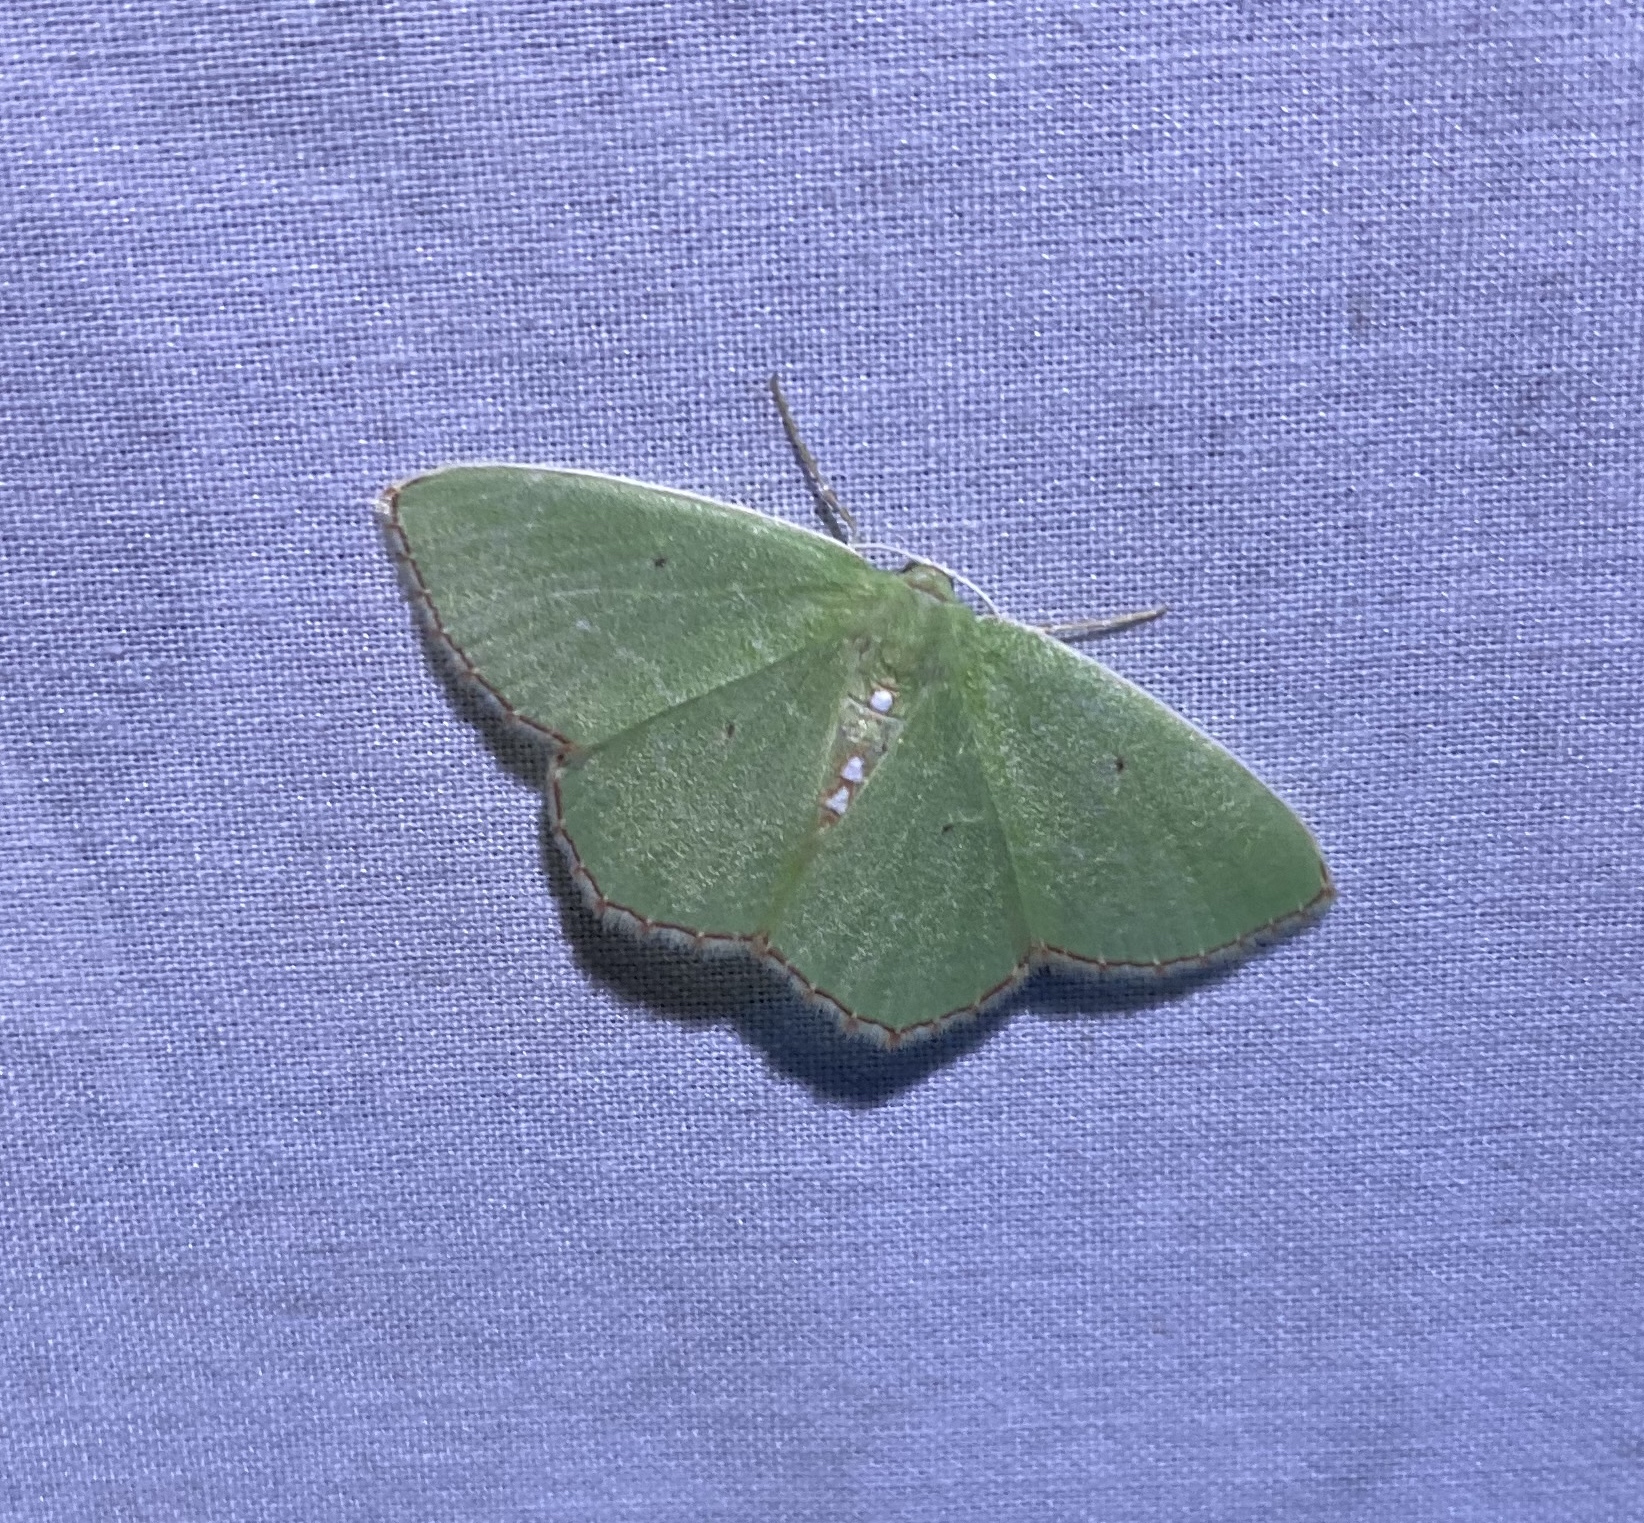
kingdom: Animalia
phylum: Arthropoda
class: Insecta
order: Lepidoptera
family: Geometridae
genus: Nemoria
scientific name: Nemoria lixaria
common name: Red-bordered emerald
